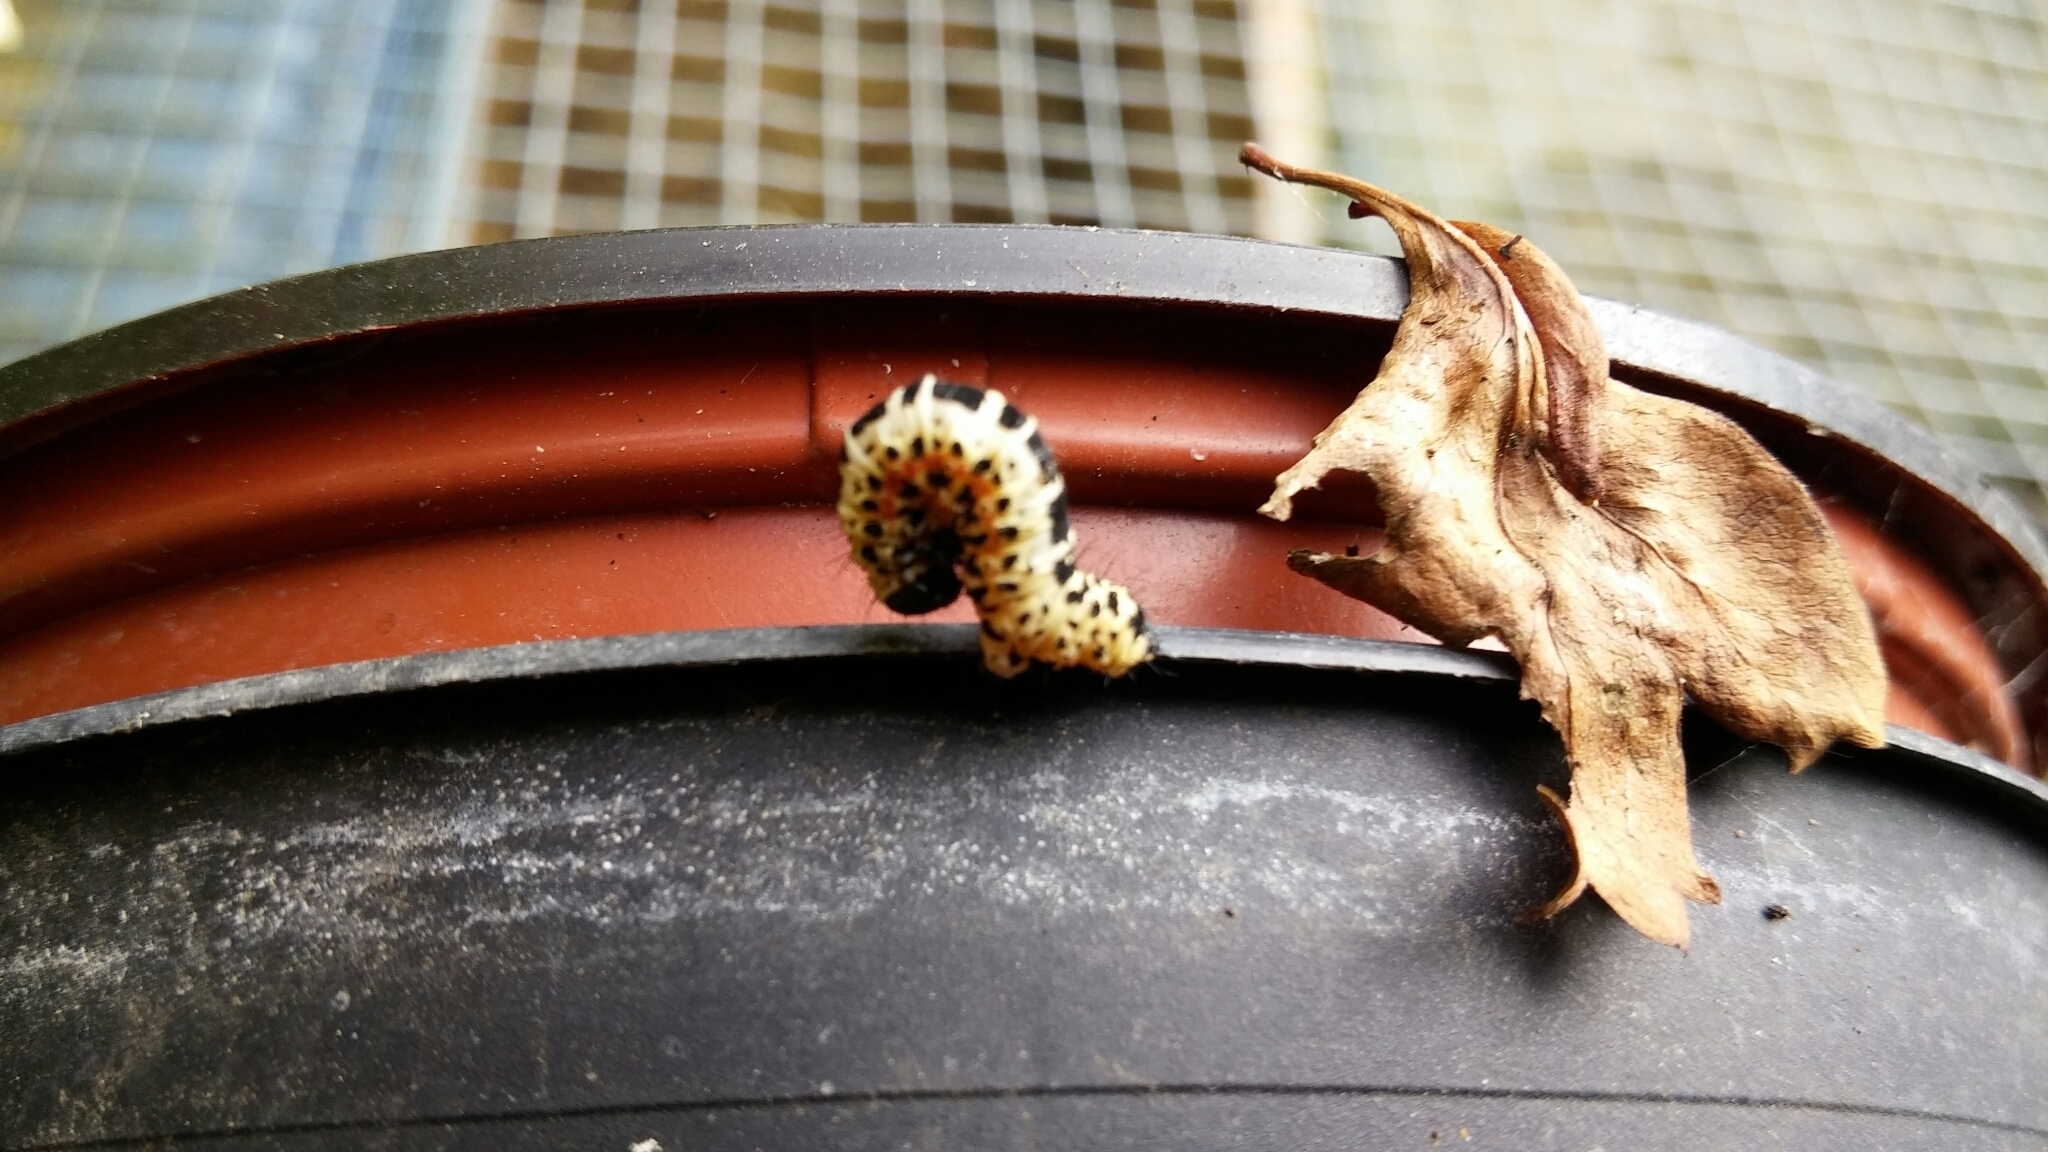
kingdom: Animalia
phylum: Arthropoda
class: Insecta
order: Lepidoptera
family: Geometridae
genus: Abraxas
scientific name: Abraxas grossulariata
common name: Magpie
